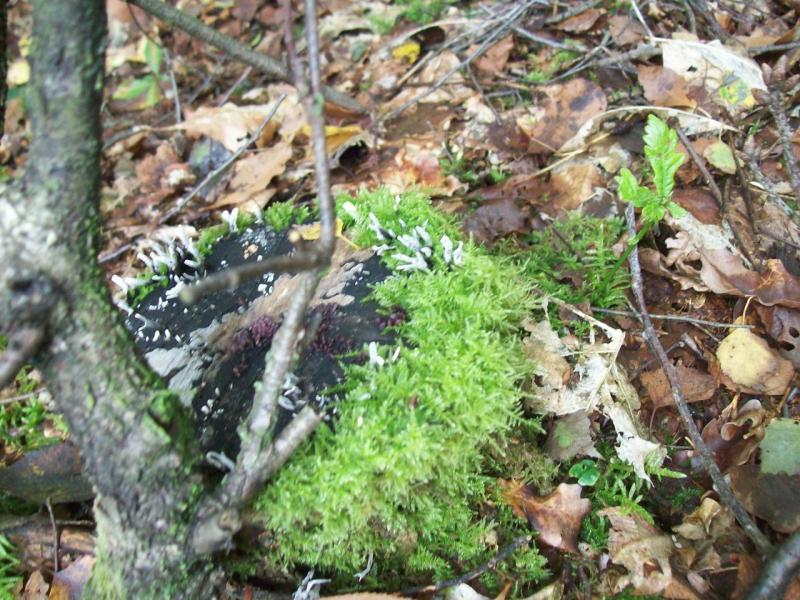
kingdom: Fungi
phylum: Ascomycota
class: Sordariomycetes
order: Xylariales
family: Xylariaceae
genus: Xylaria
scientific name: Xylaria hypoxylon
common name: Candle-snuff fungus
